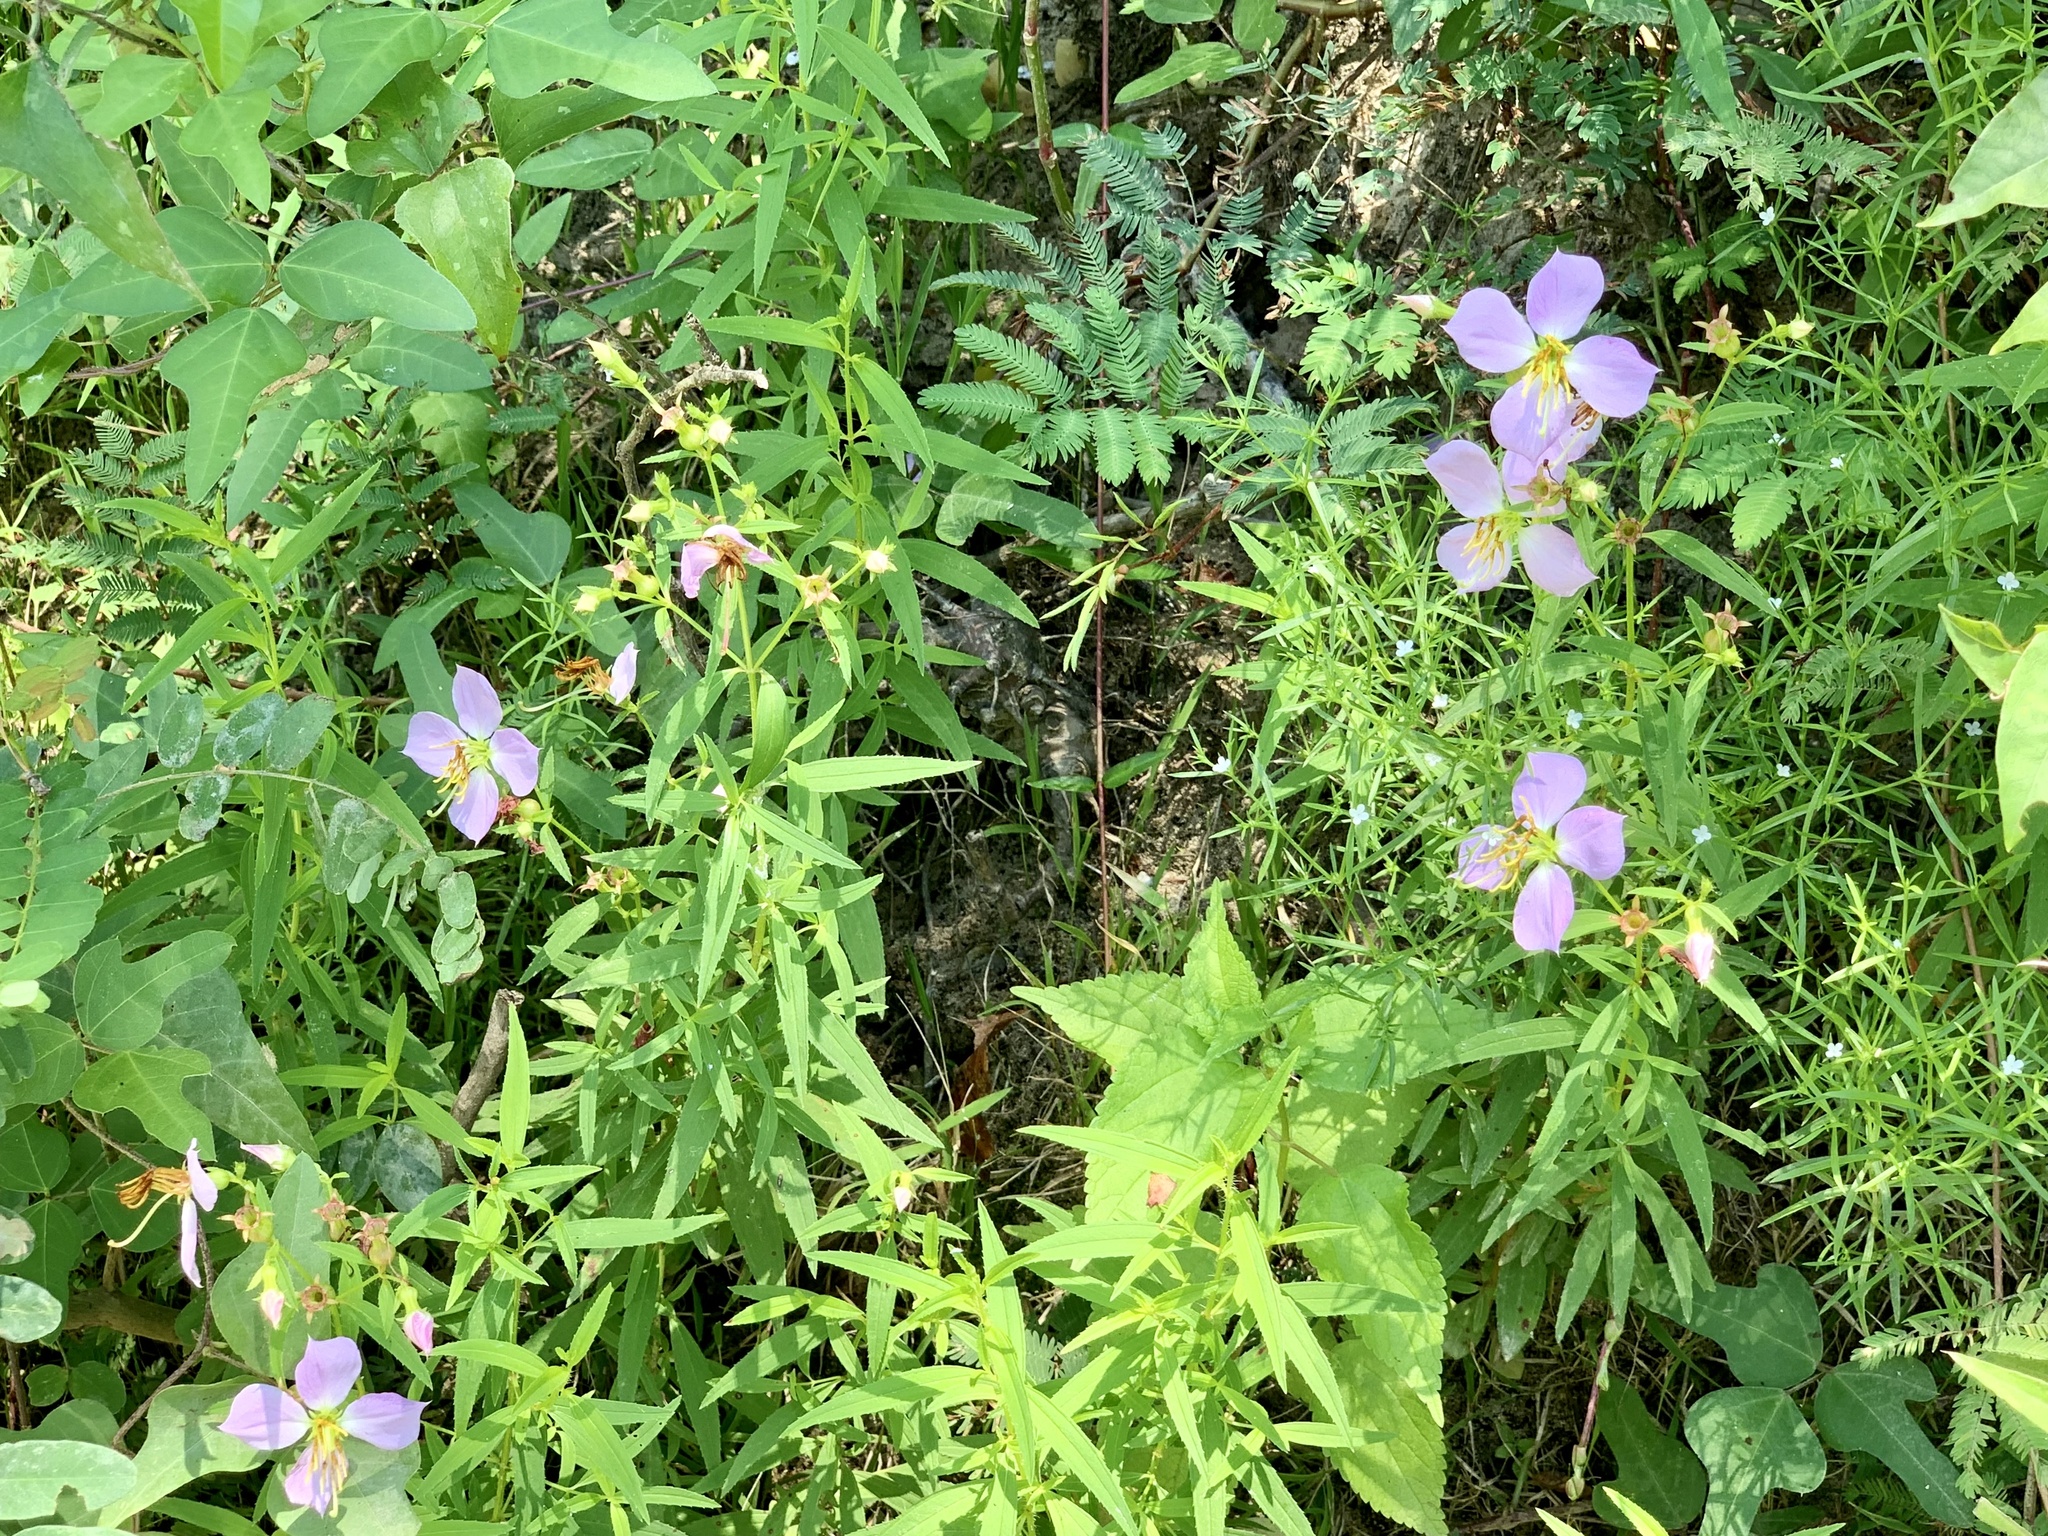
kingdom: Plantae
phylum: Tracheophyta
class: Magnoliopsida
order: Myrtales
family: Melastomataceae
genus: Rhexia
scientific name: Rhexia mariana
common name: Dull meadow-pitcher
